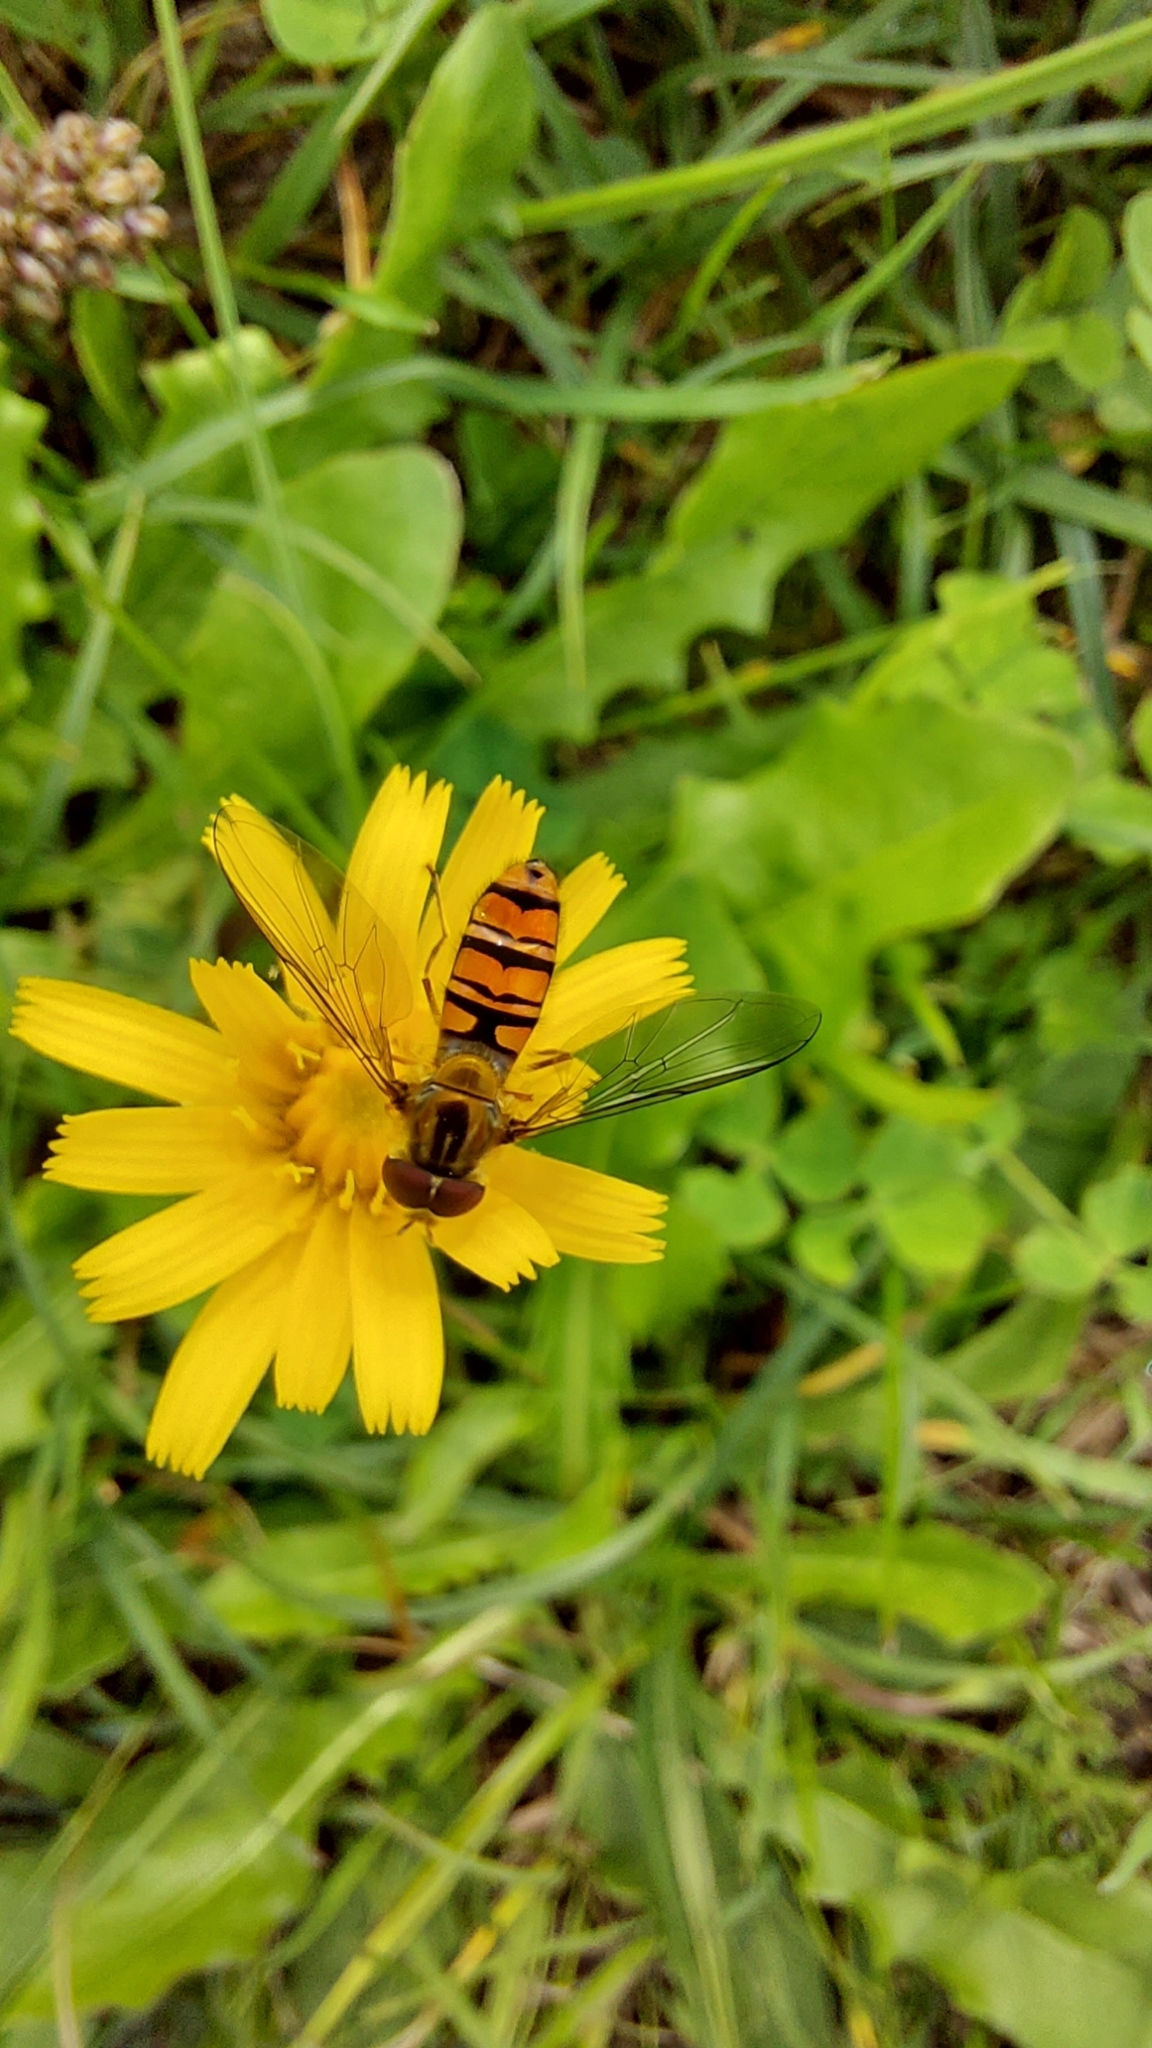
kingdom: Animalia
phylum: Arthropoda
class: Insecta
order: Diptera
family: Syrphidae
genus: Episyrphus
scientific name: Episyrphus balteatus
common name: Marmalade hoverfly
